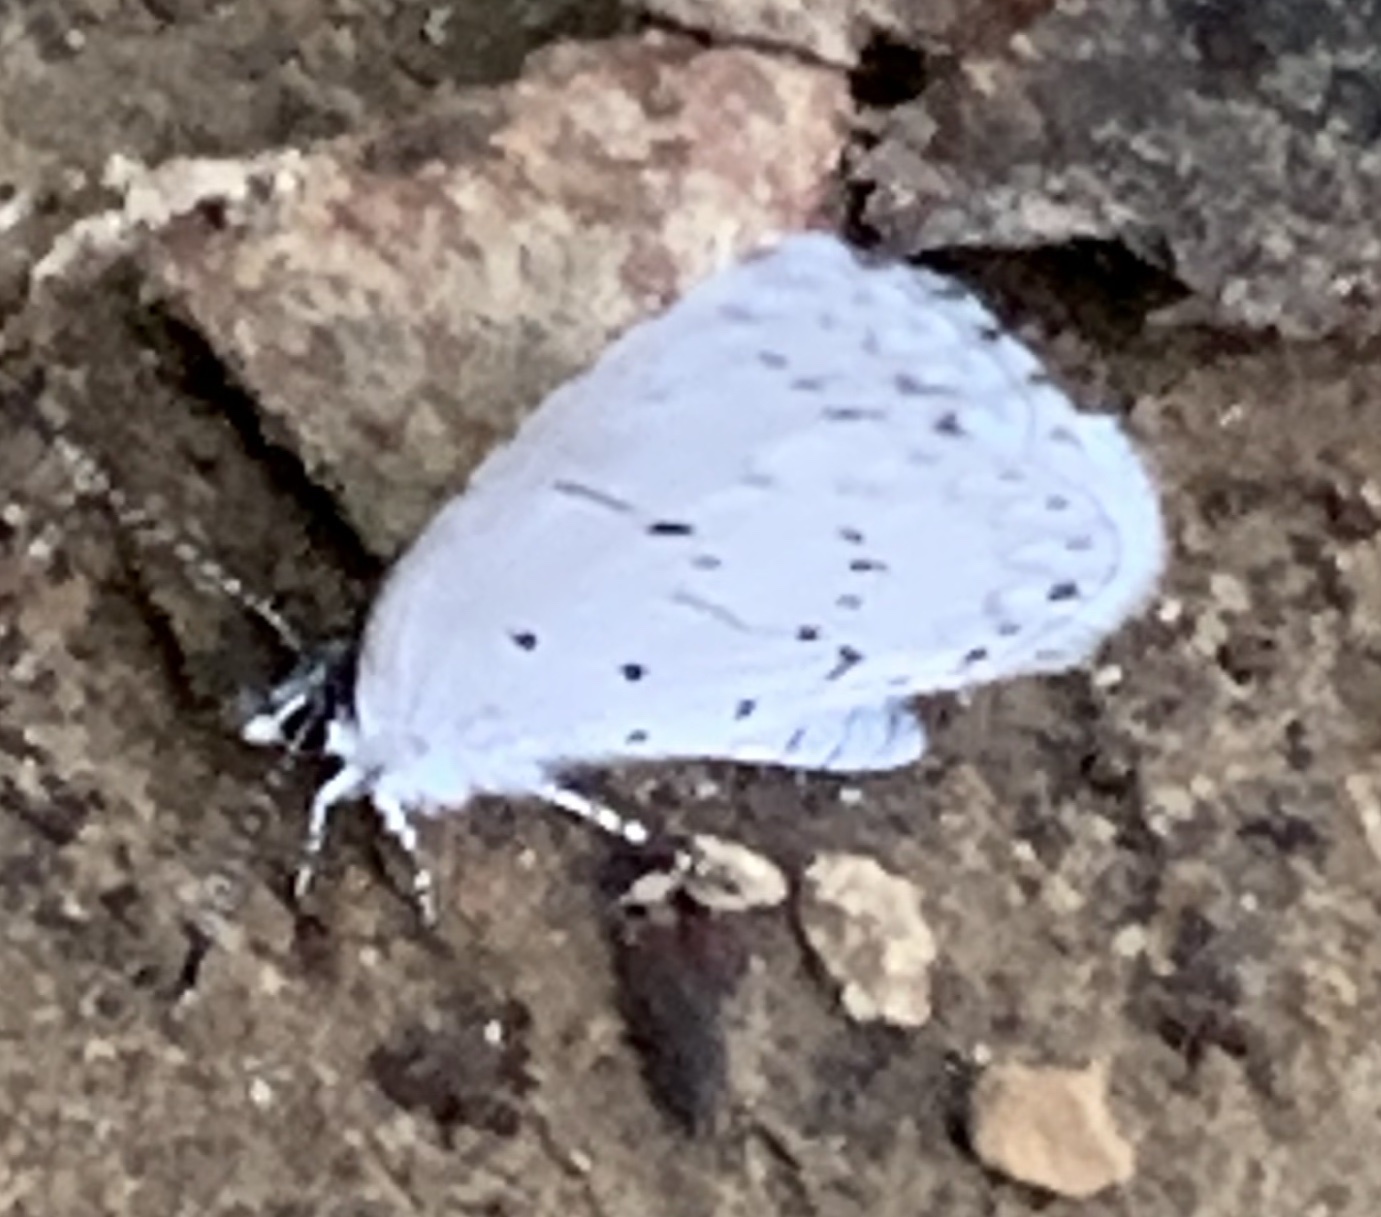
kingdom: Animalia
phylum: Arthropoda
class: Insecta
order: Lepidoptera
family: Lycaenidae
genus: Cyaniris
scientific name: Cyaniris neglecta
